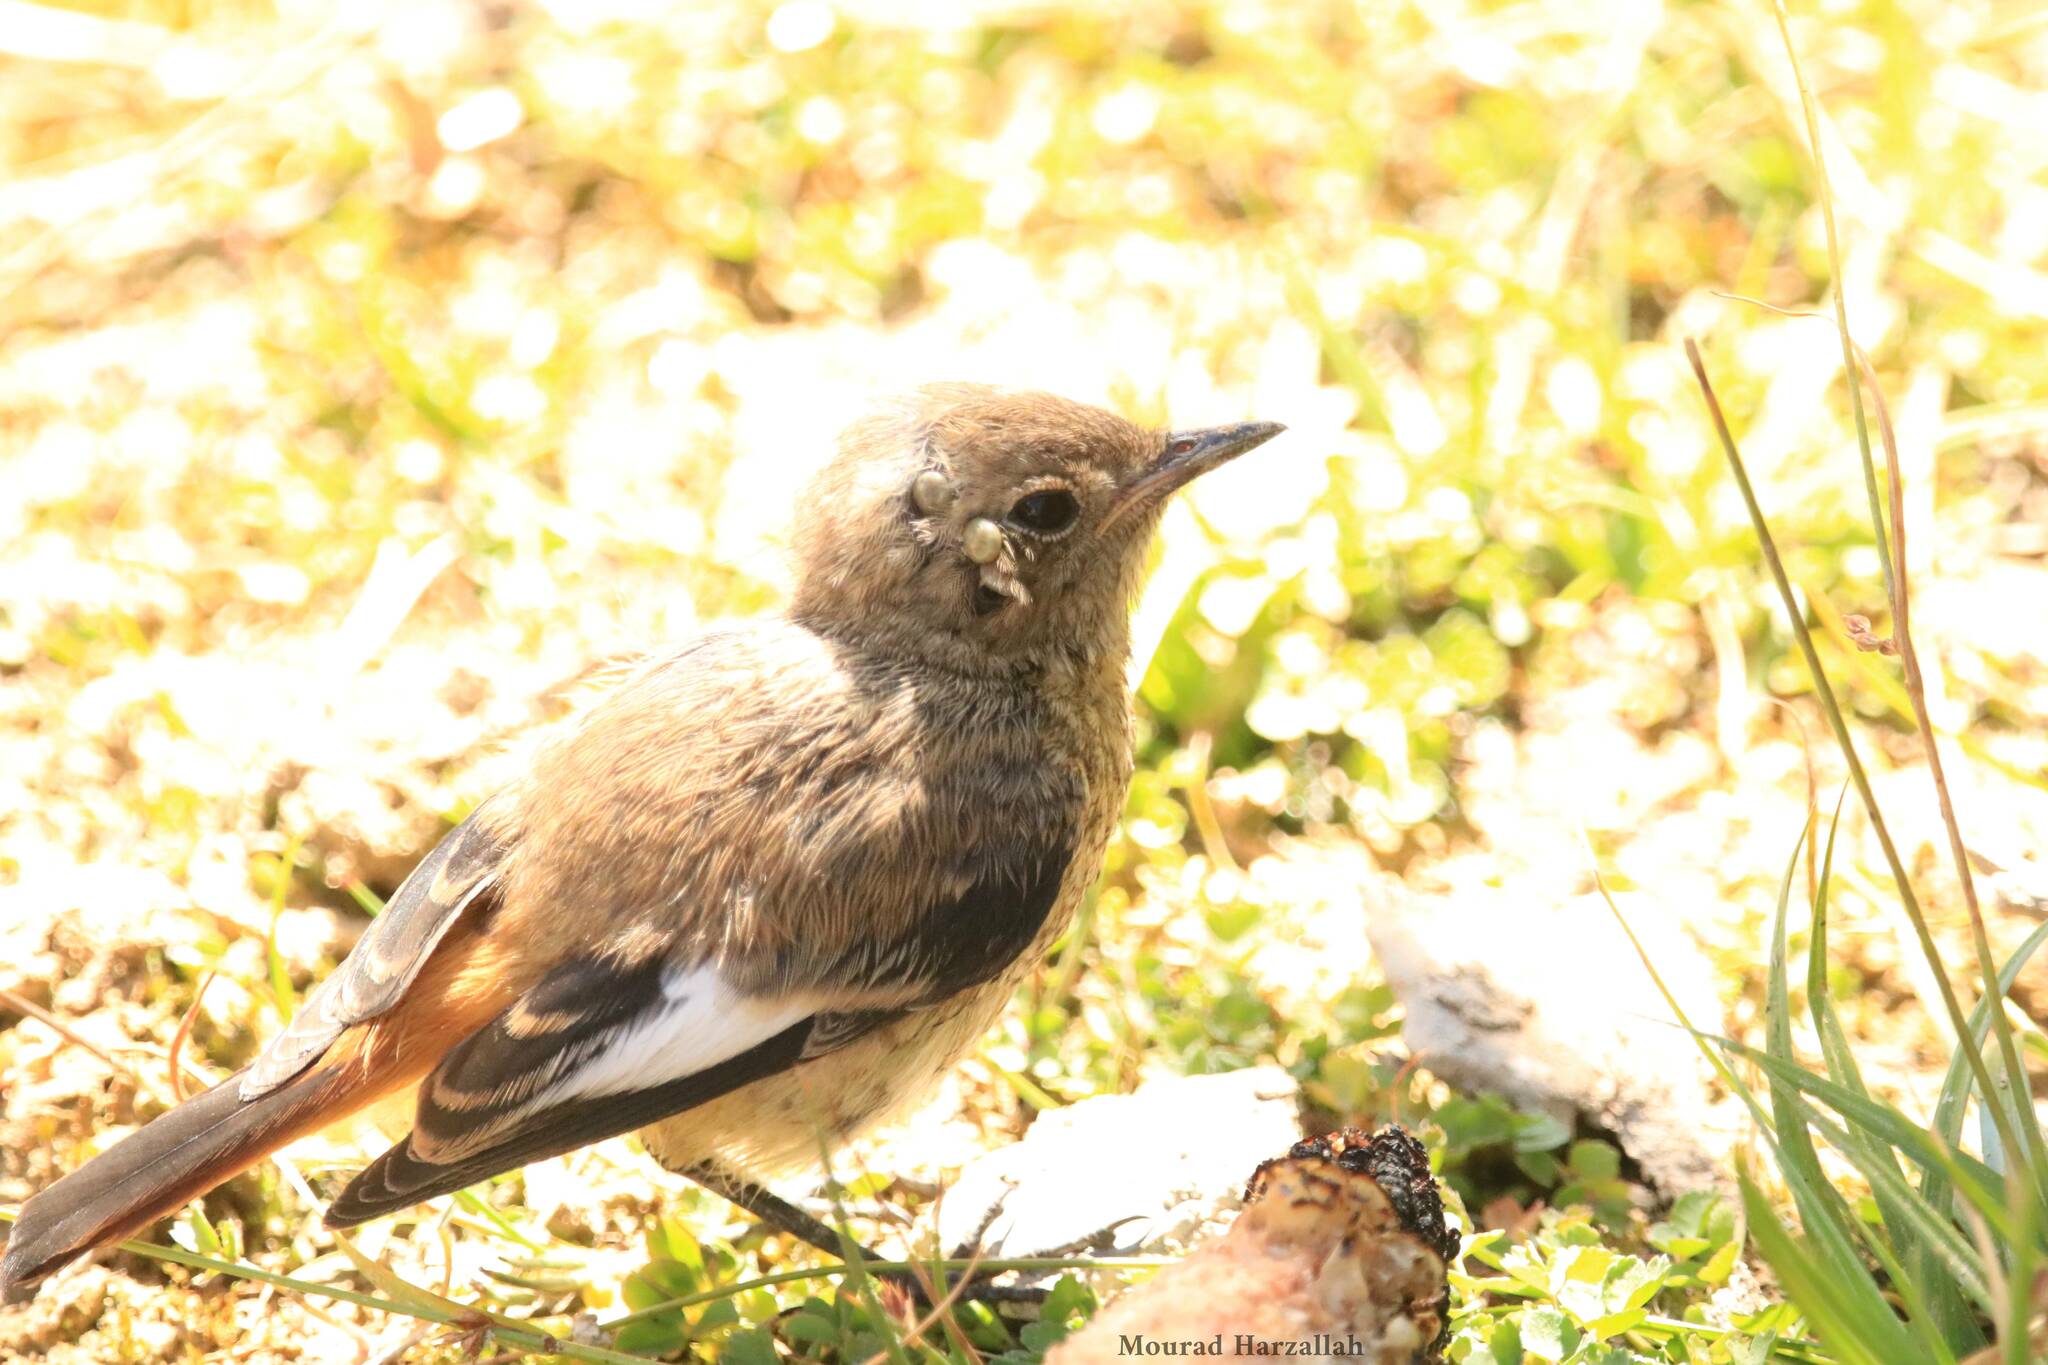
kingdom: Animalia
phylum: Chordata
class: Aves
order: Passeriformes
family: Muscicapidae
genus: Phoenicurus
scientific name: Phoenicurus moussieri
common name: Moussier's redstart
